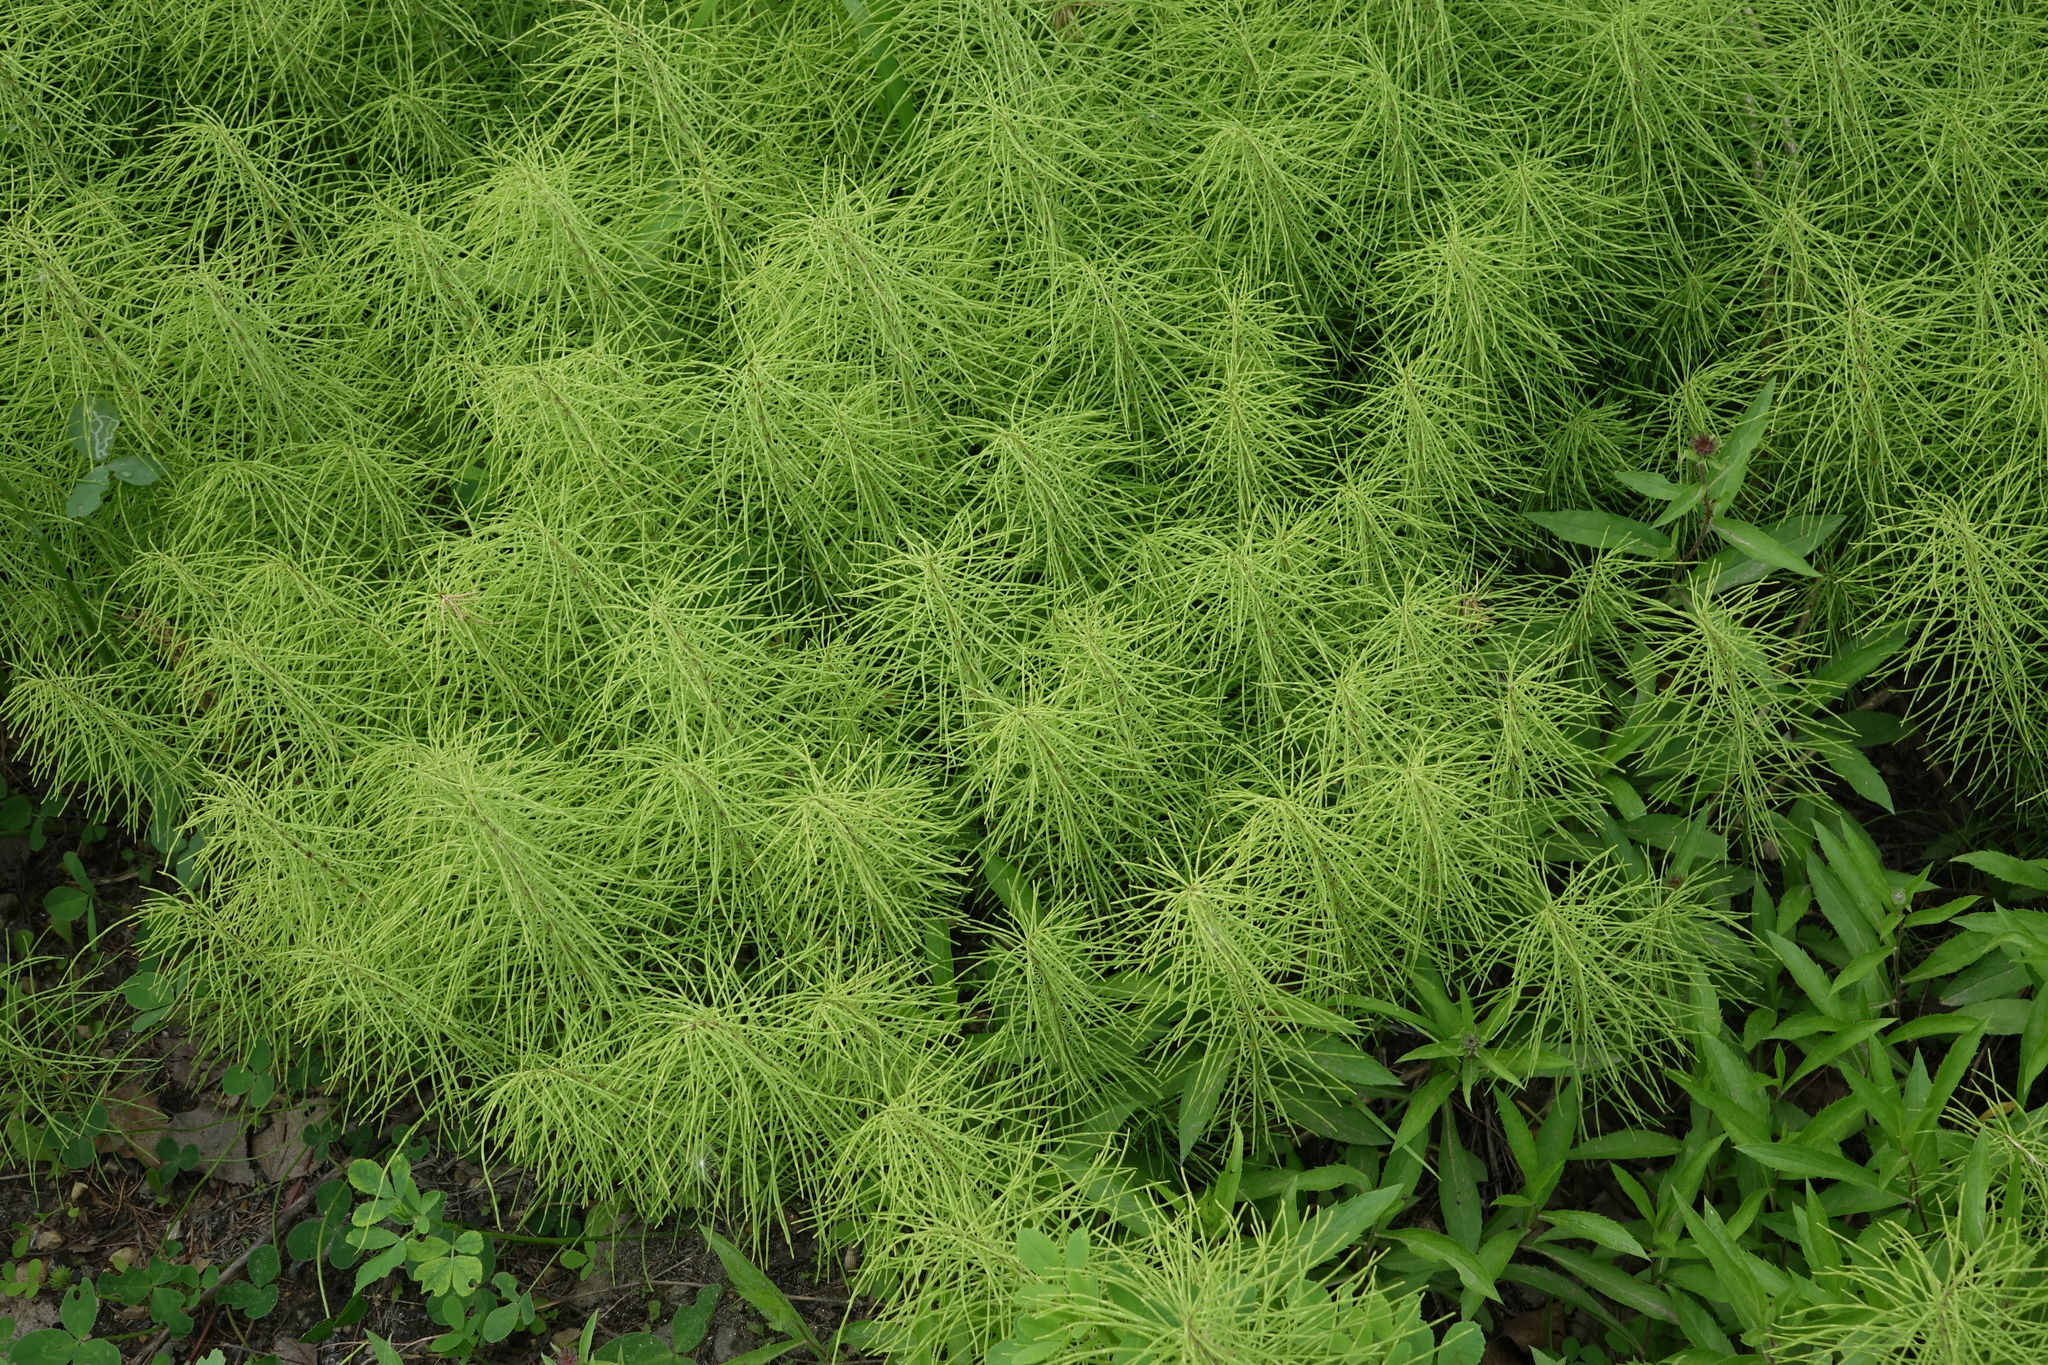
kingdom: Plantae
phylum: Tracheophyta
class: Polypodiopsida
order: Equisetales
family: Equisetaceae
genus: Equisetum
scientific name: Equisetum pratense
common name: Meadow horsetail
